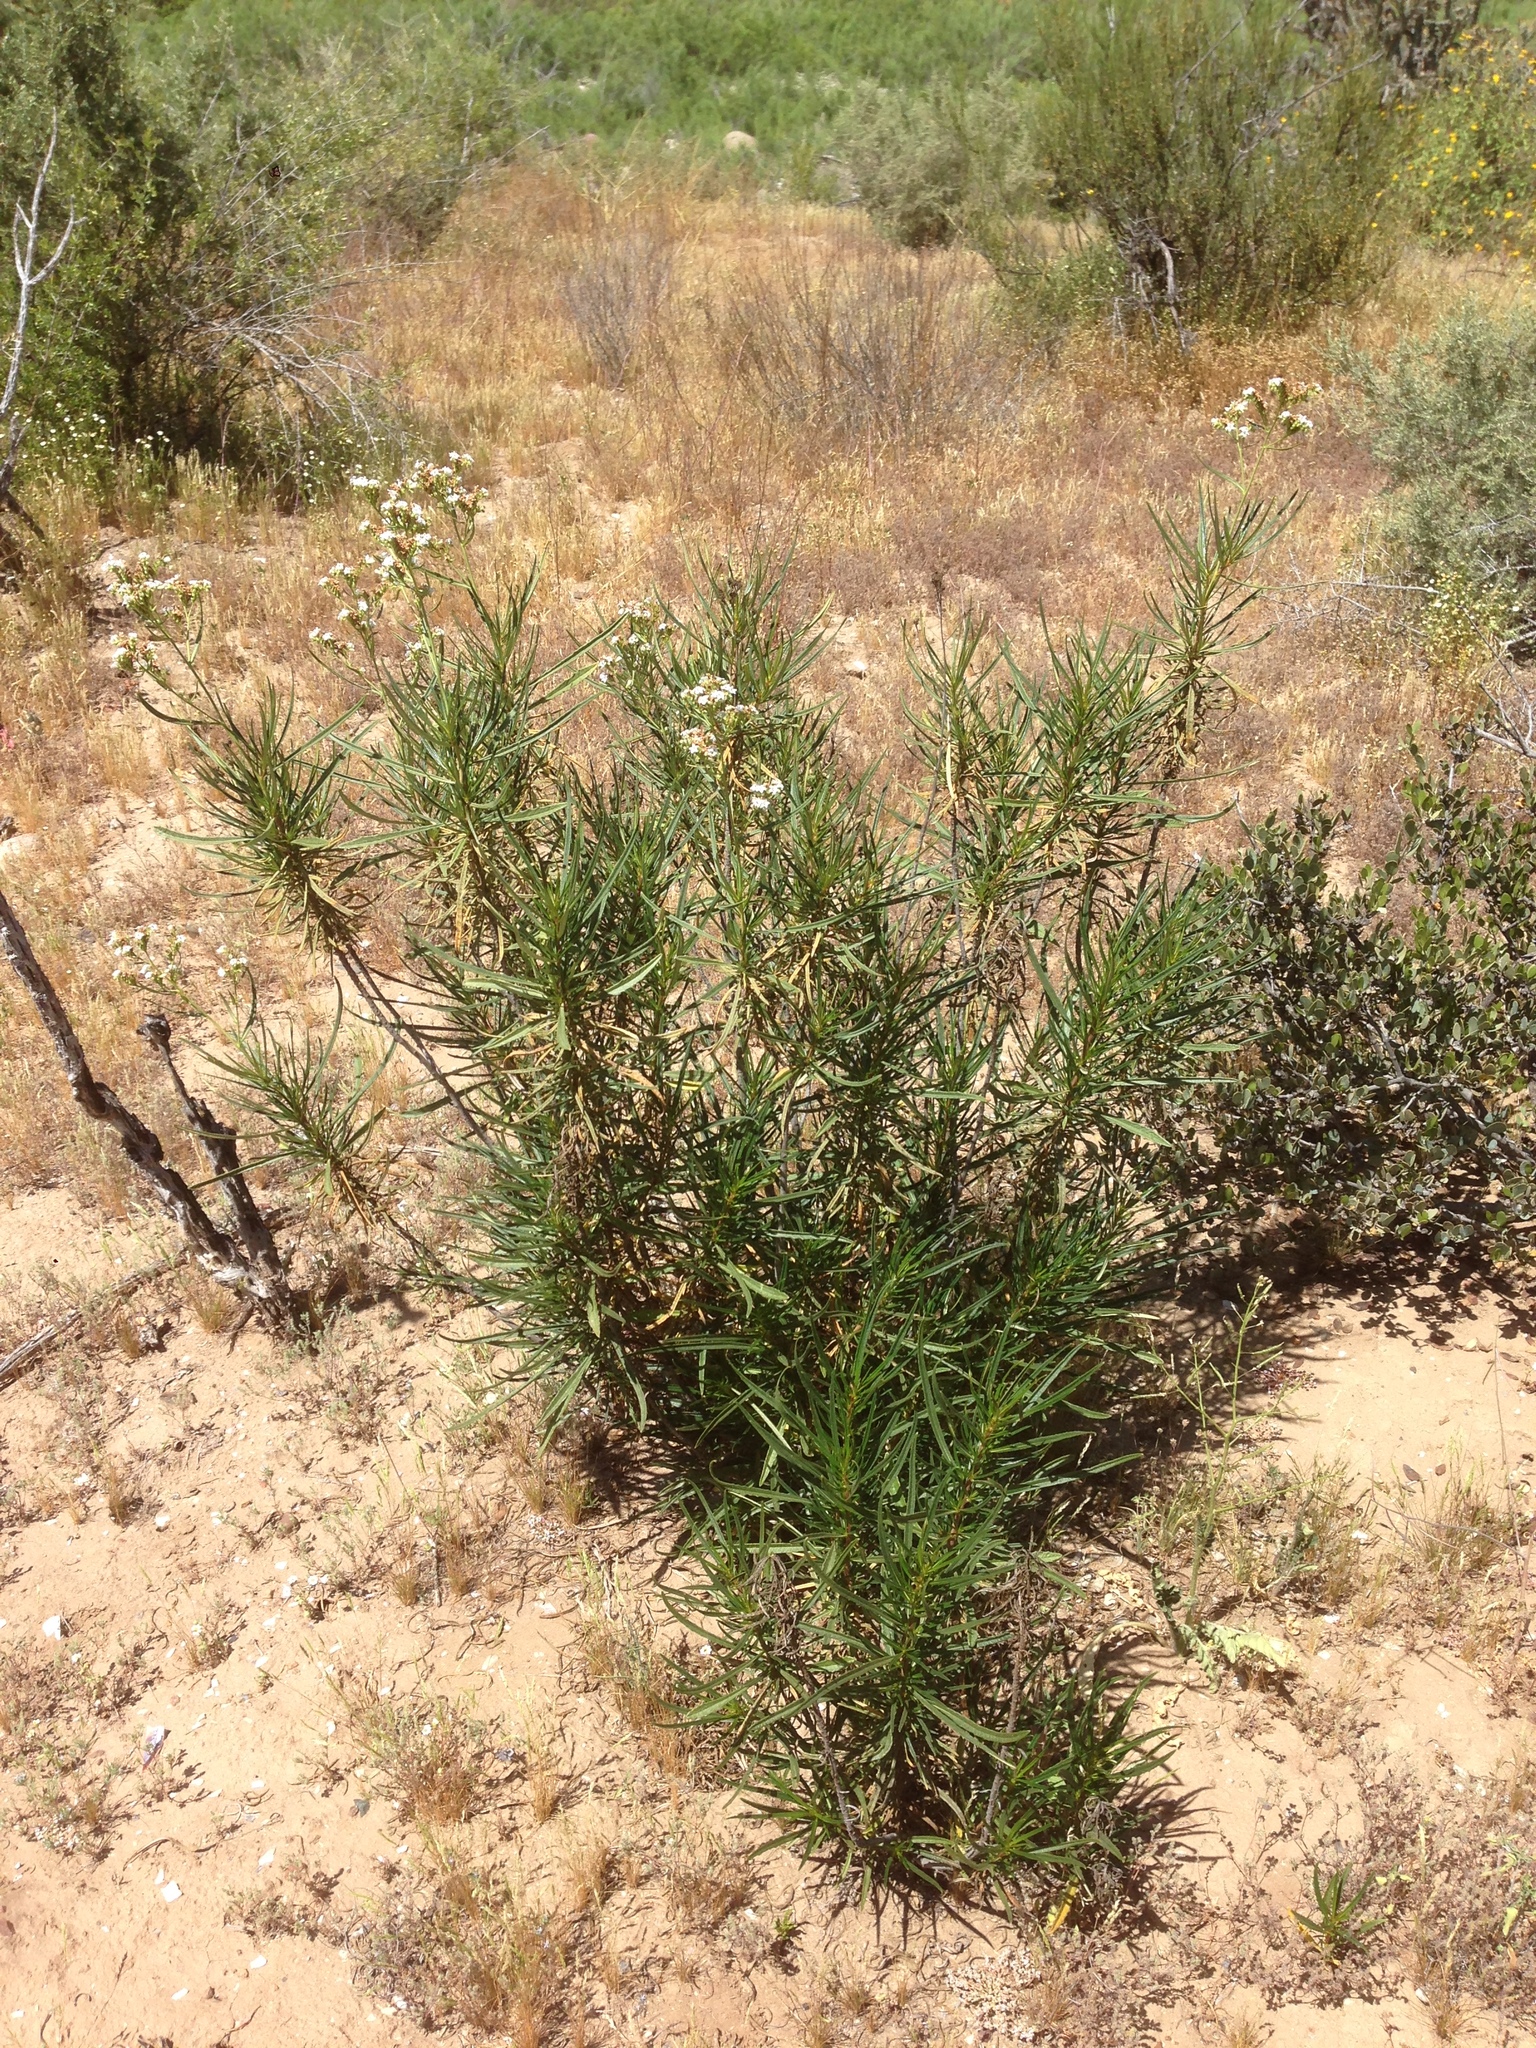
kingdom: Plantae
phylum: Tracheophyta
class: Magnoliopsida
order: Boraginales
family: Namaceae
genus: Eriodictyon
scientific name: Eriodictyon angustifolium
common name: Narrow-leaf yerba santa
